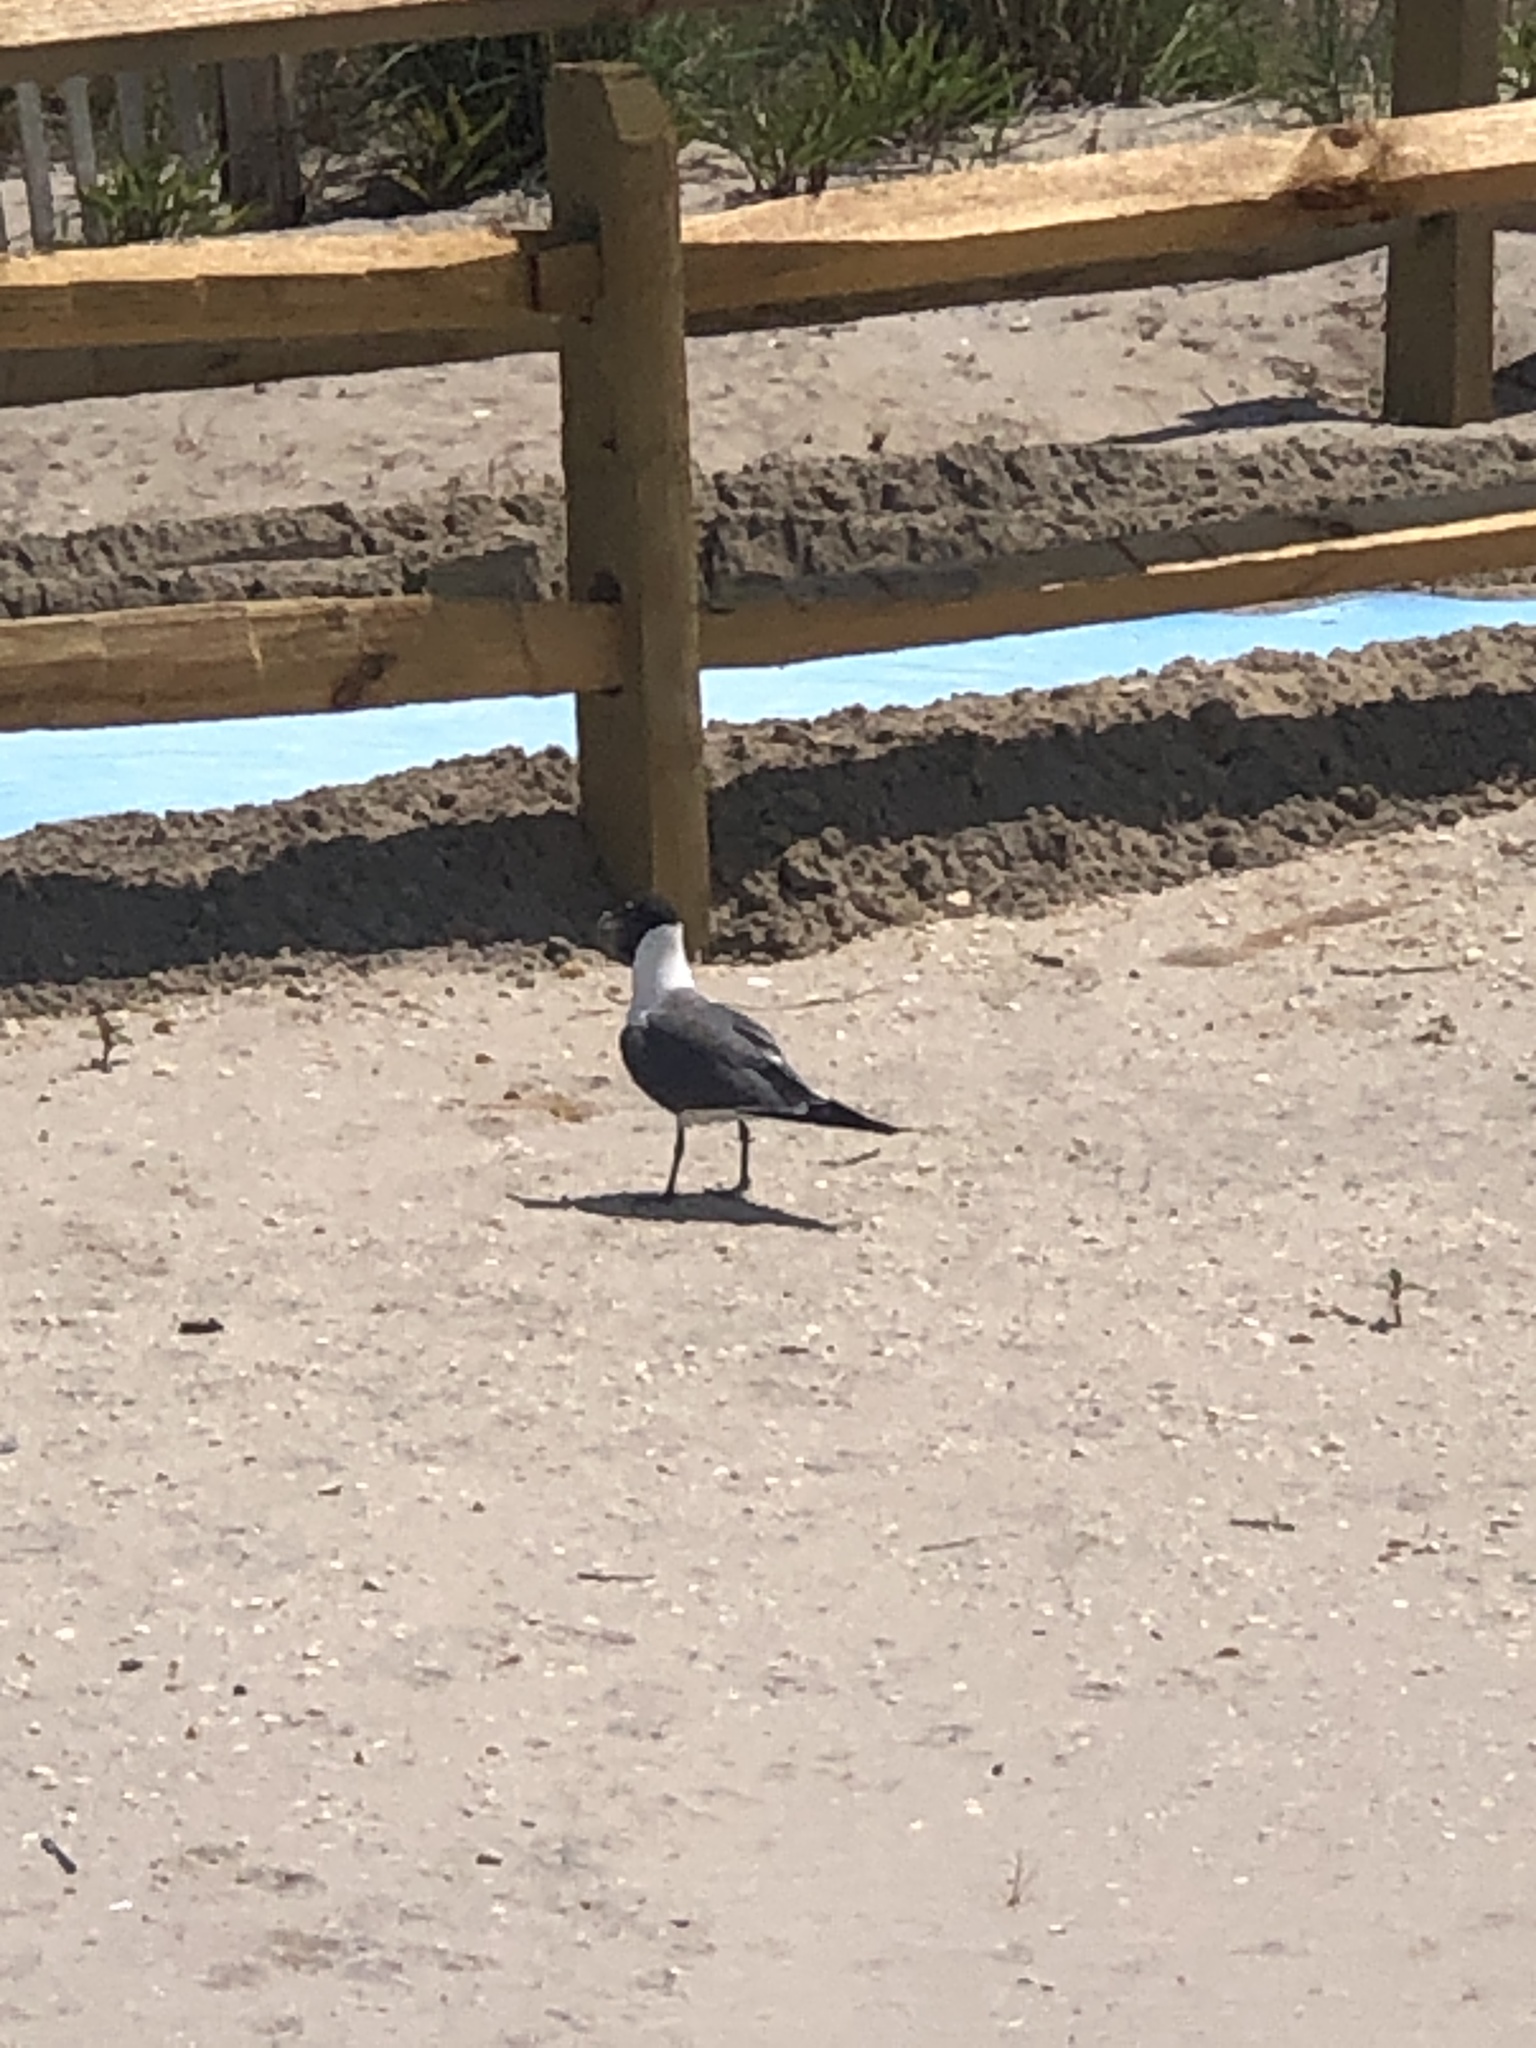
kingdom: Animalia
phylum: Chordata
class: Aves
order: Charadriiformes
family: Laridae
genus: Leucophaeus
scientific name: Leucophaeus atricilla
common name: Laughing gull
